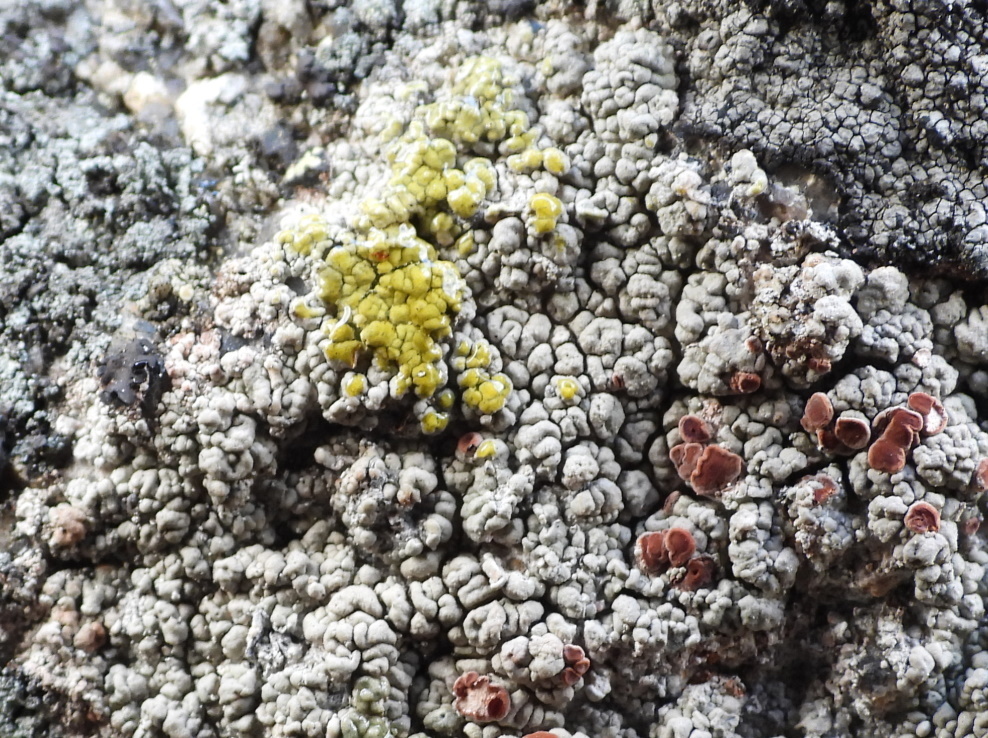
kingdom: Fungi
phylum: Ascomycota
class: Lecanoromycetes
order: Umbilicariales
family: Ophioparmaceae
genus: Ophioparma
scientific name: Ophioparma ventosa
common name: Blood-spot
